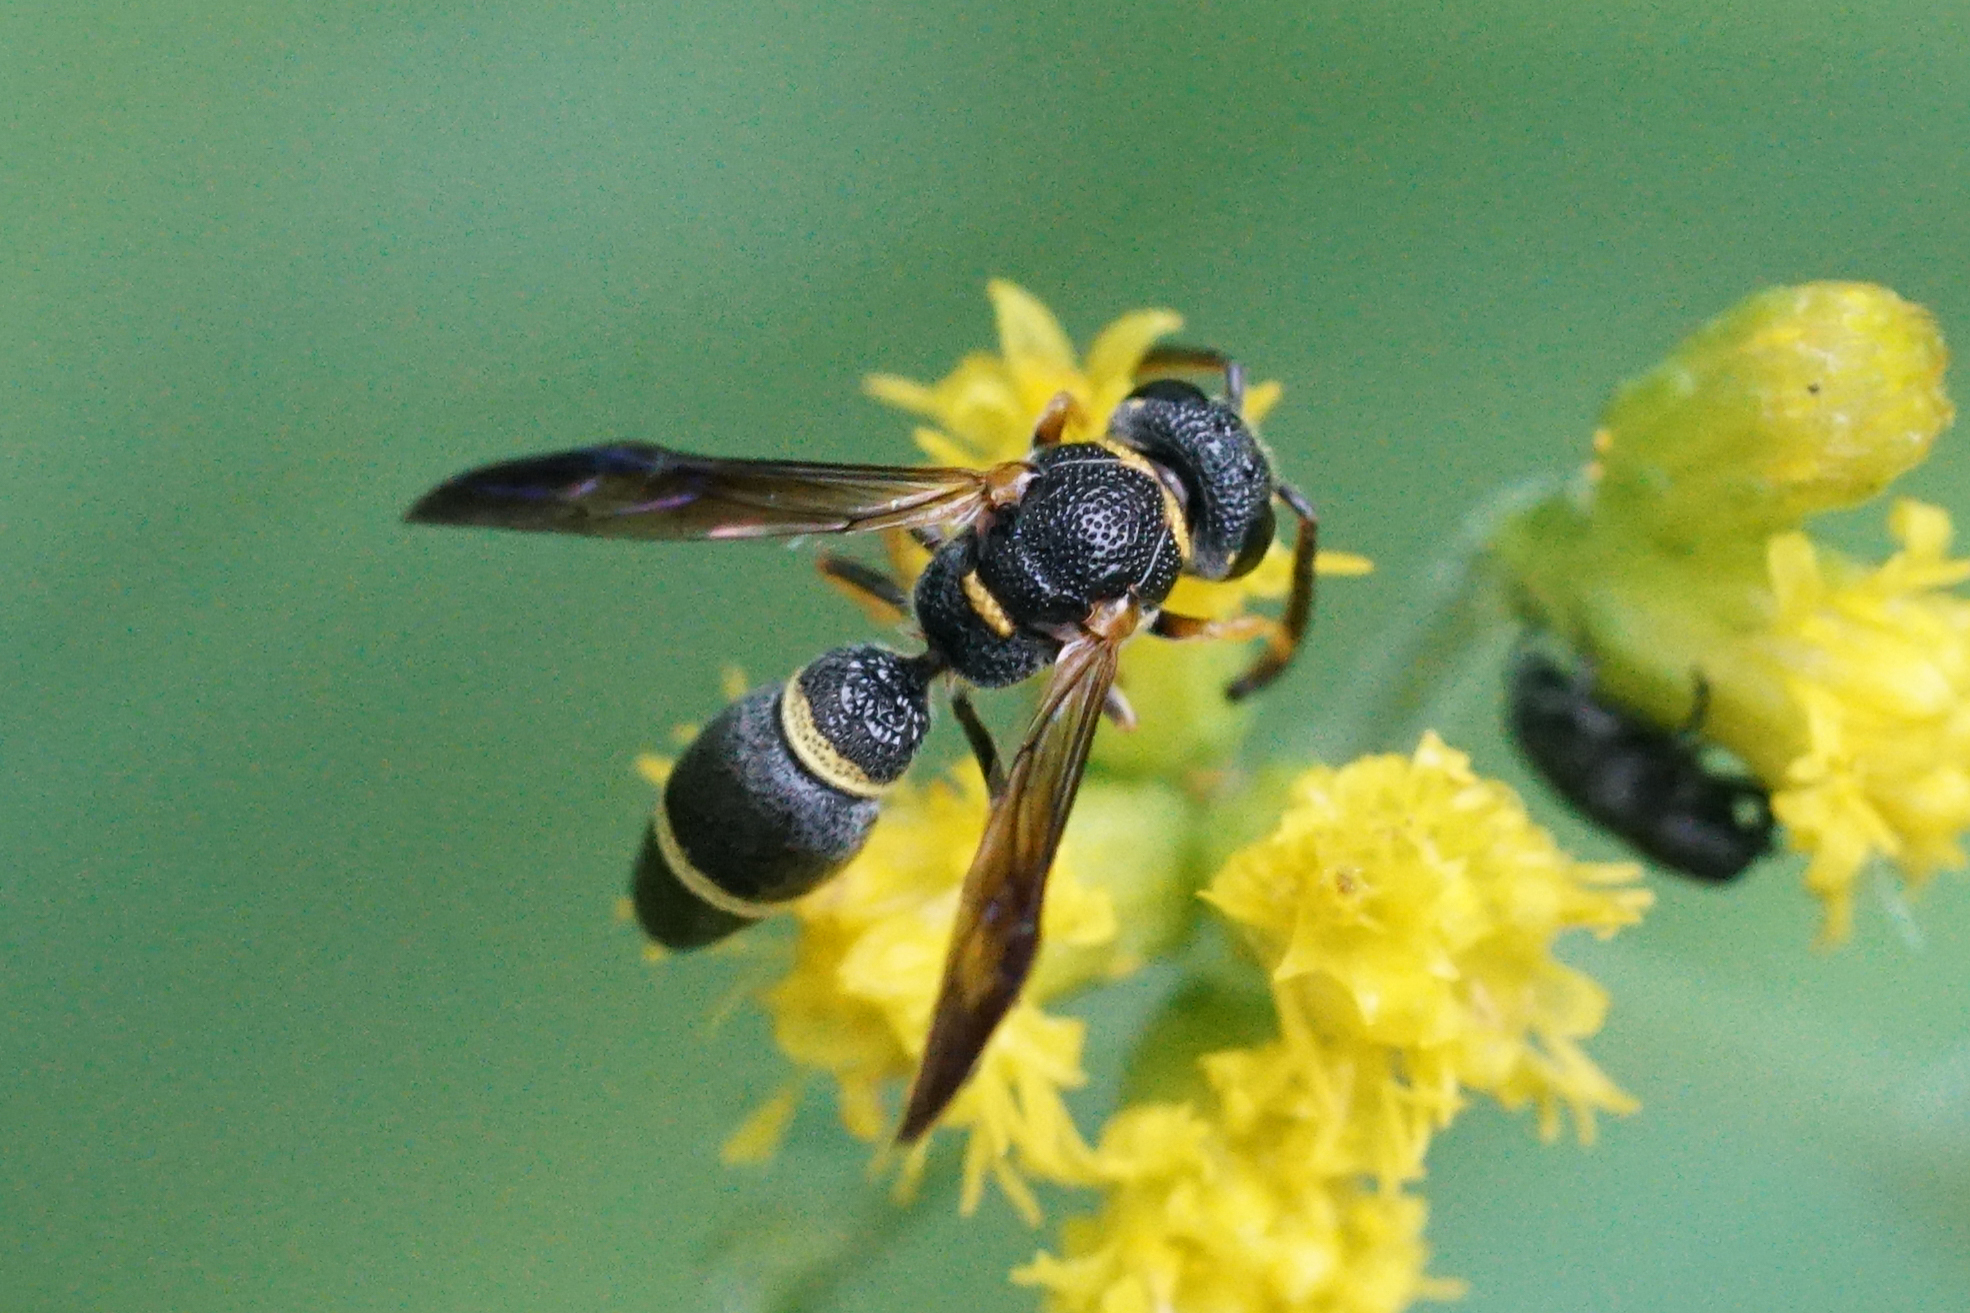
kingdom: Animalia
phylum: Arthropoda
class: Insecta
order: Hymenoptera
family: Eumenidae
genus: Parancistrocerus
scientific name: Parancistrocerus perennis
